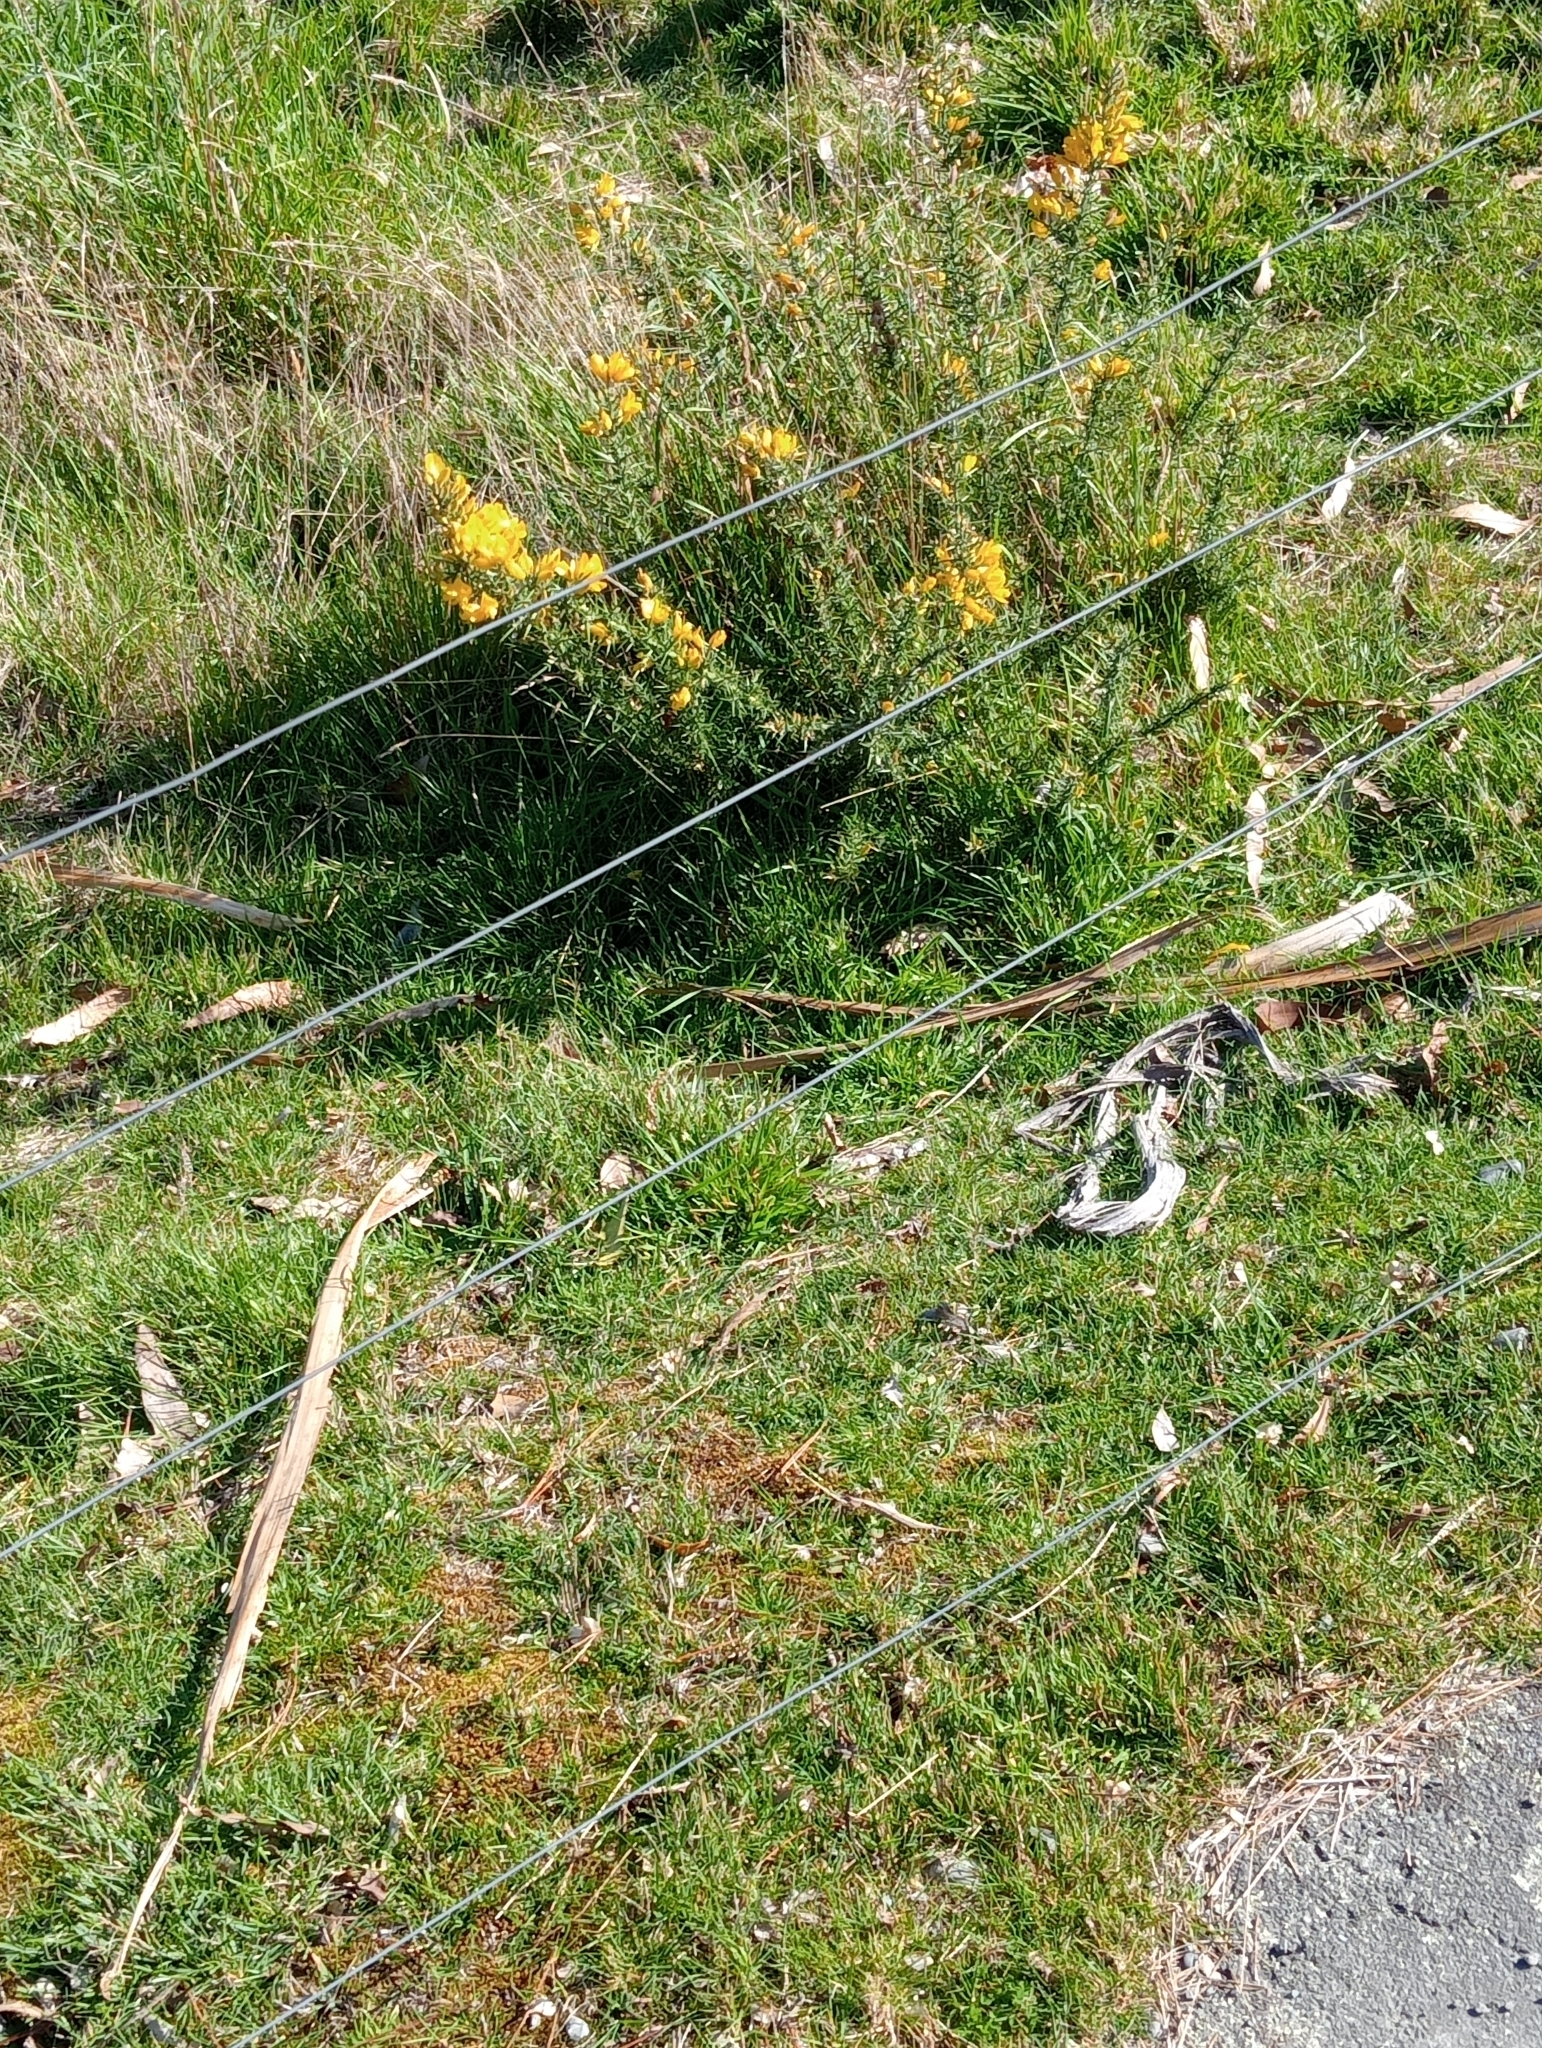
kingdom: Plantae
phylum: Tracheophyta
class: Magnoliopsida
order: Fabales
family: Fabaceae
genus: Ulex
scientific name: Ulex europaeus
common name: Common gorse
